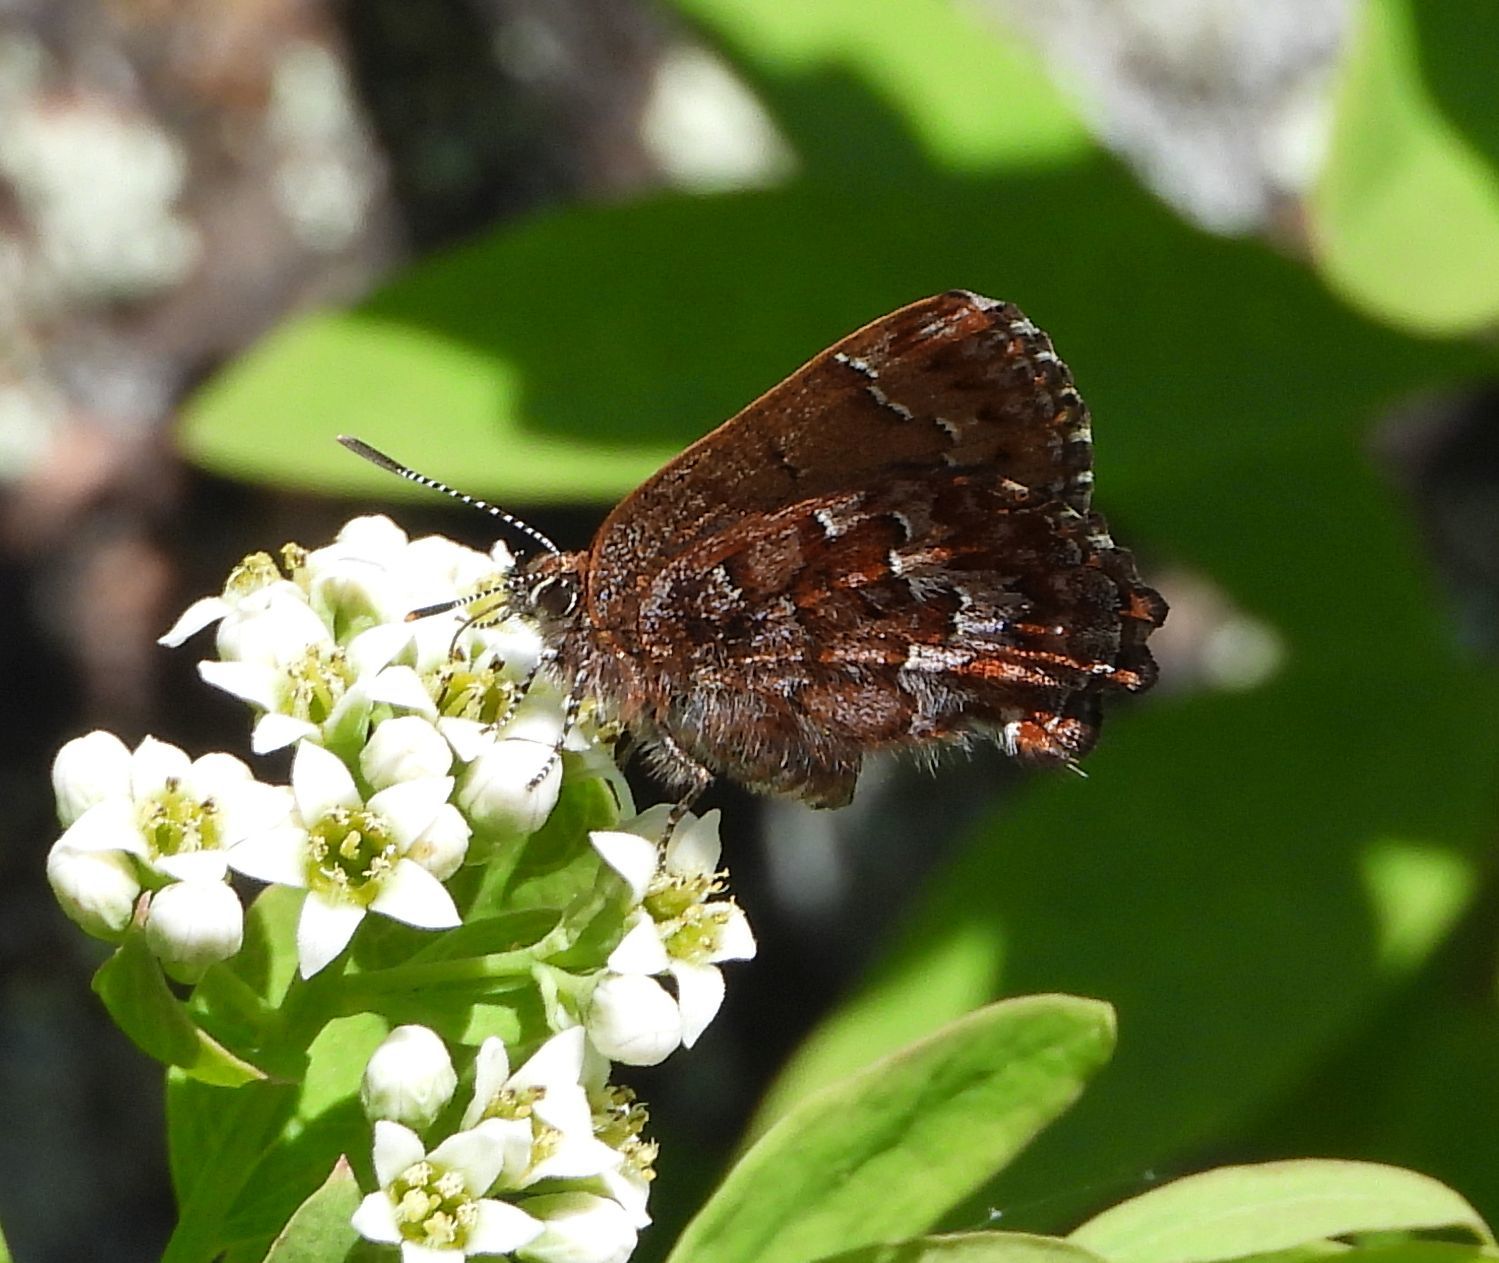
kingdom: Animalia
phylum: Arthropoda
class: Insecta
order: Lepidoptera
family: Lycaenidae
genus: Incisalia
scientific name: Incisalia niphon
